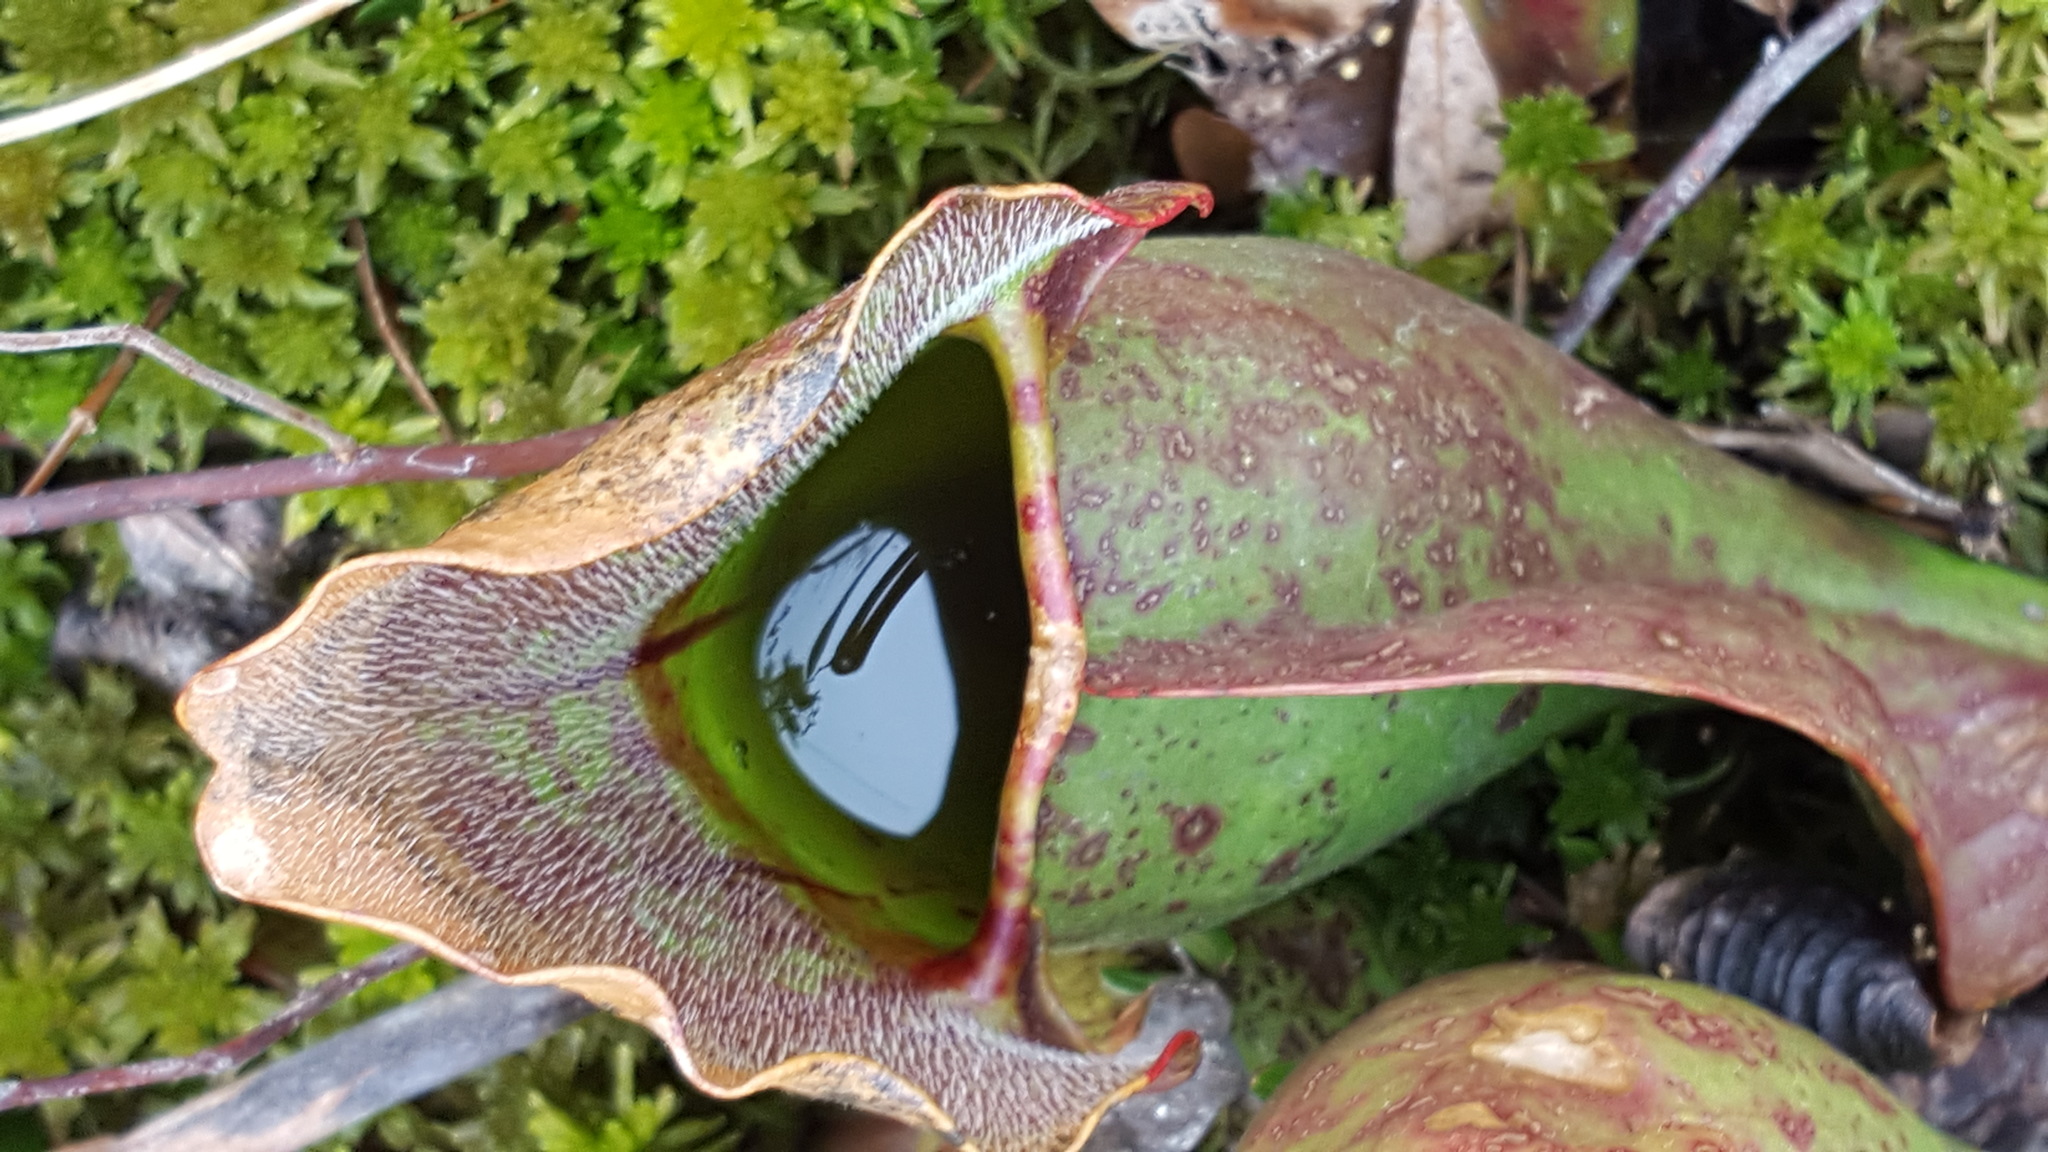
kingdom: Plantae
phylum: Tracheophyta
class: Magnoliopsida
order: Ericales
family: Sarraceniaceae
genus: Sarracenia
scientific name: Sarracenia purpurea
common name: Pitcherplant
